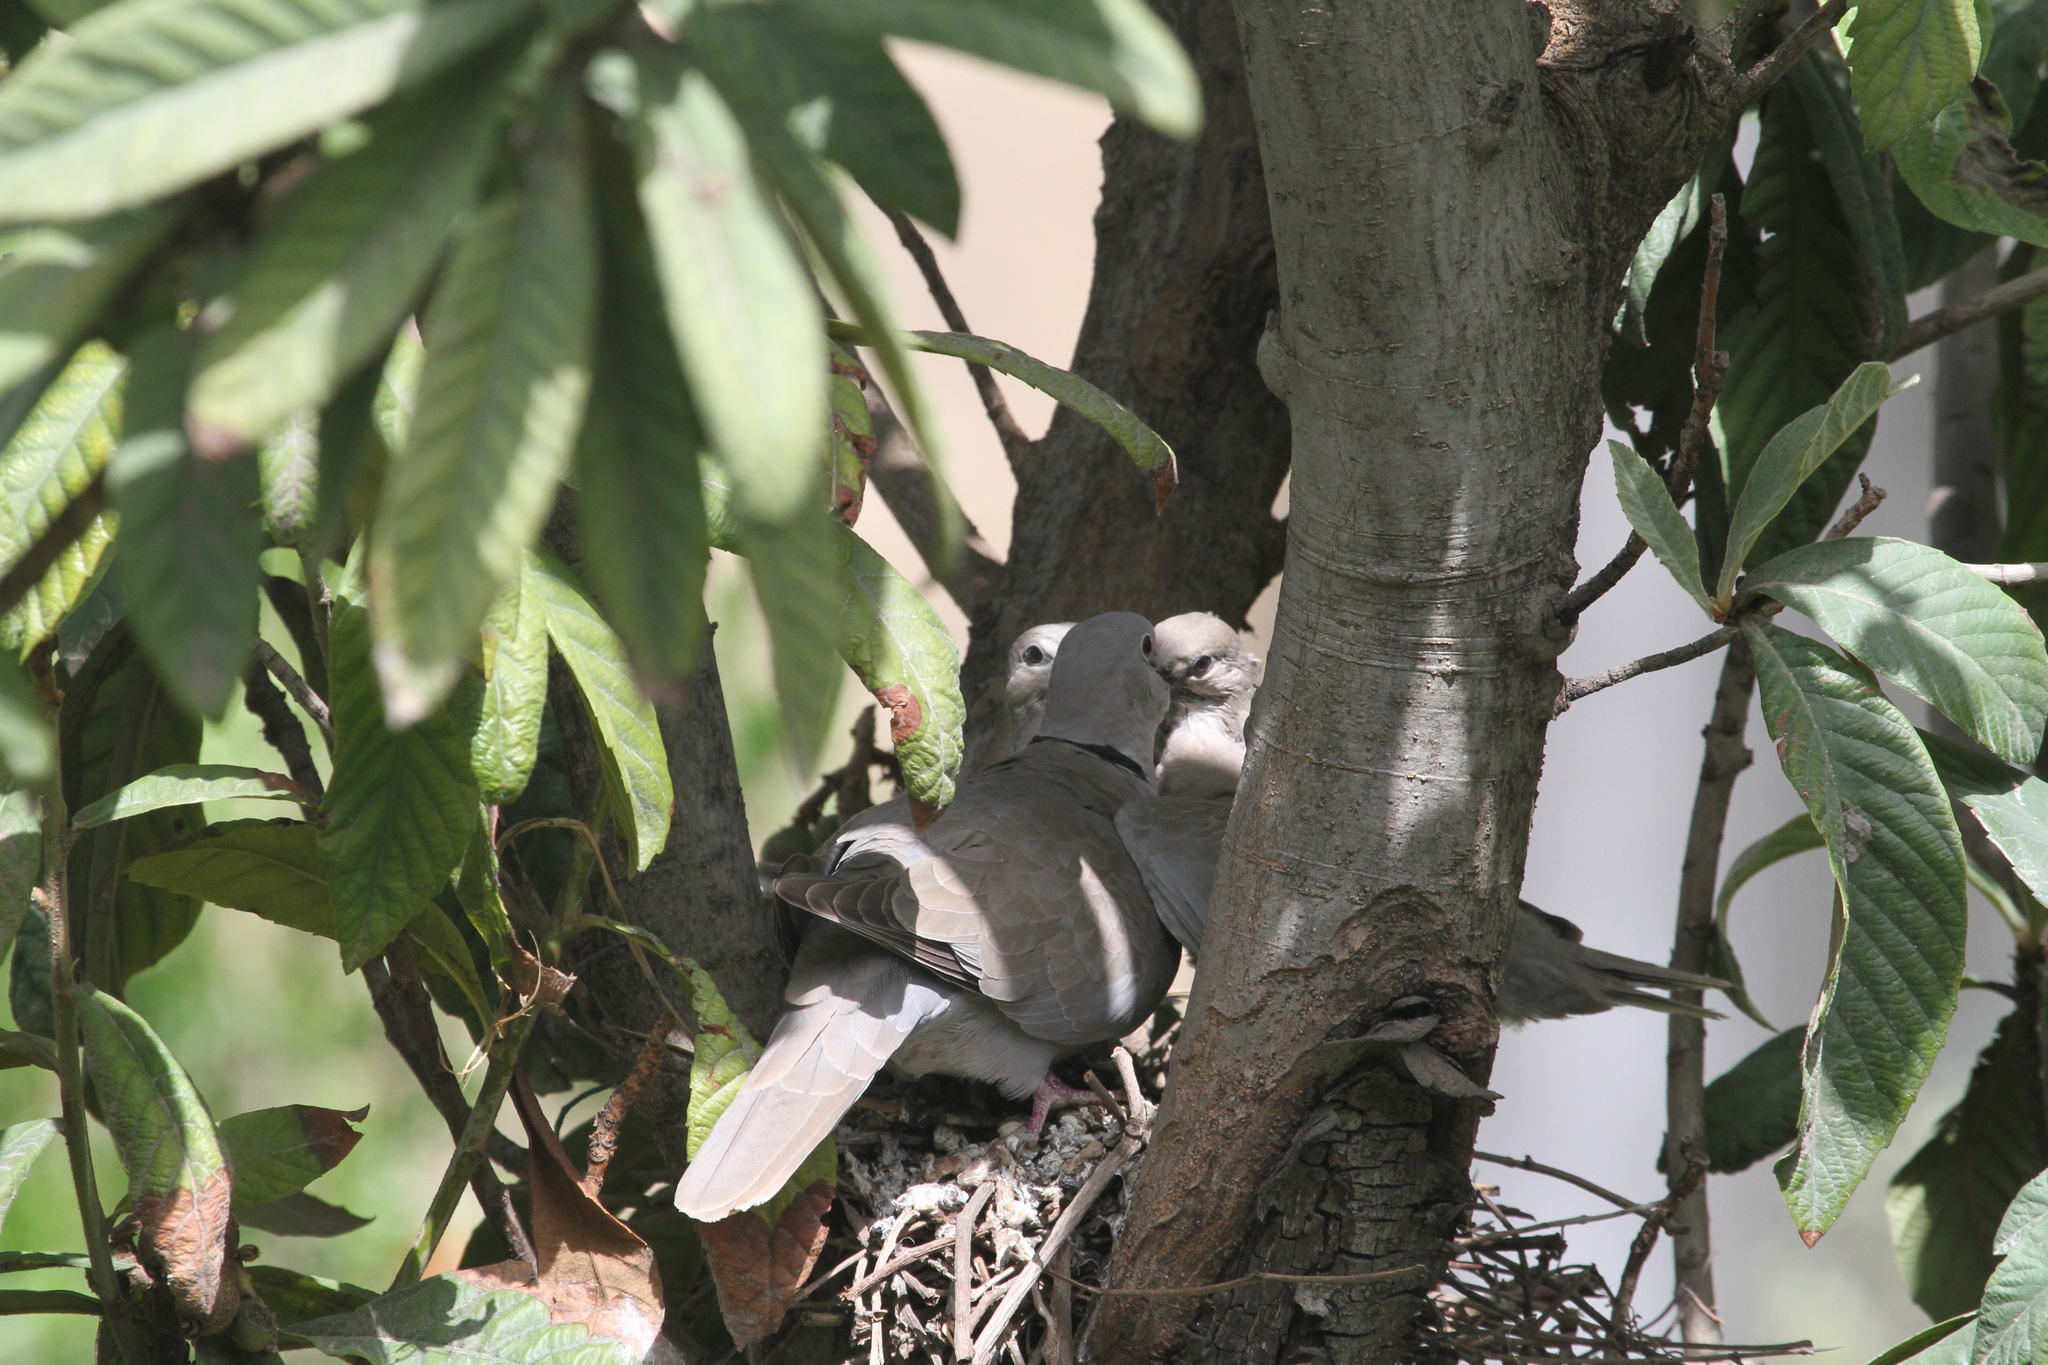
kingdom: Animalia
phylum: Chordata
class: Aves
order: Columbiformes
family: Columbidae
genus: Streptopelia
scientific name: Streptopelia decaocto
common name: Eurasian collared dove
